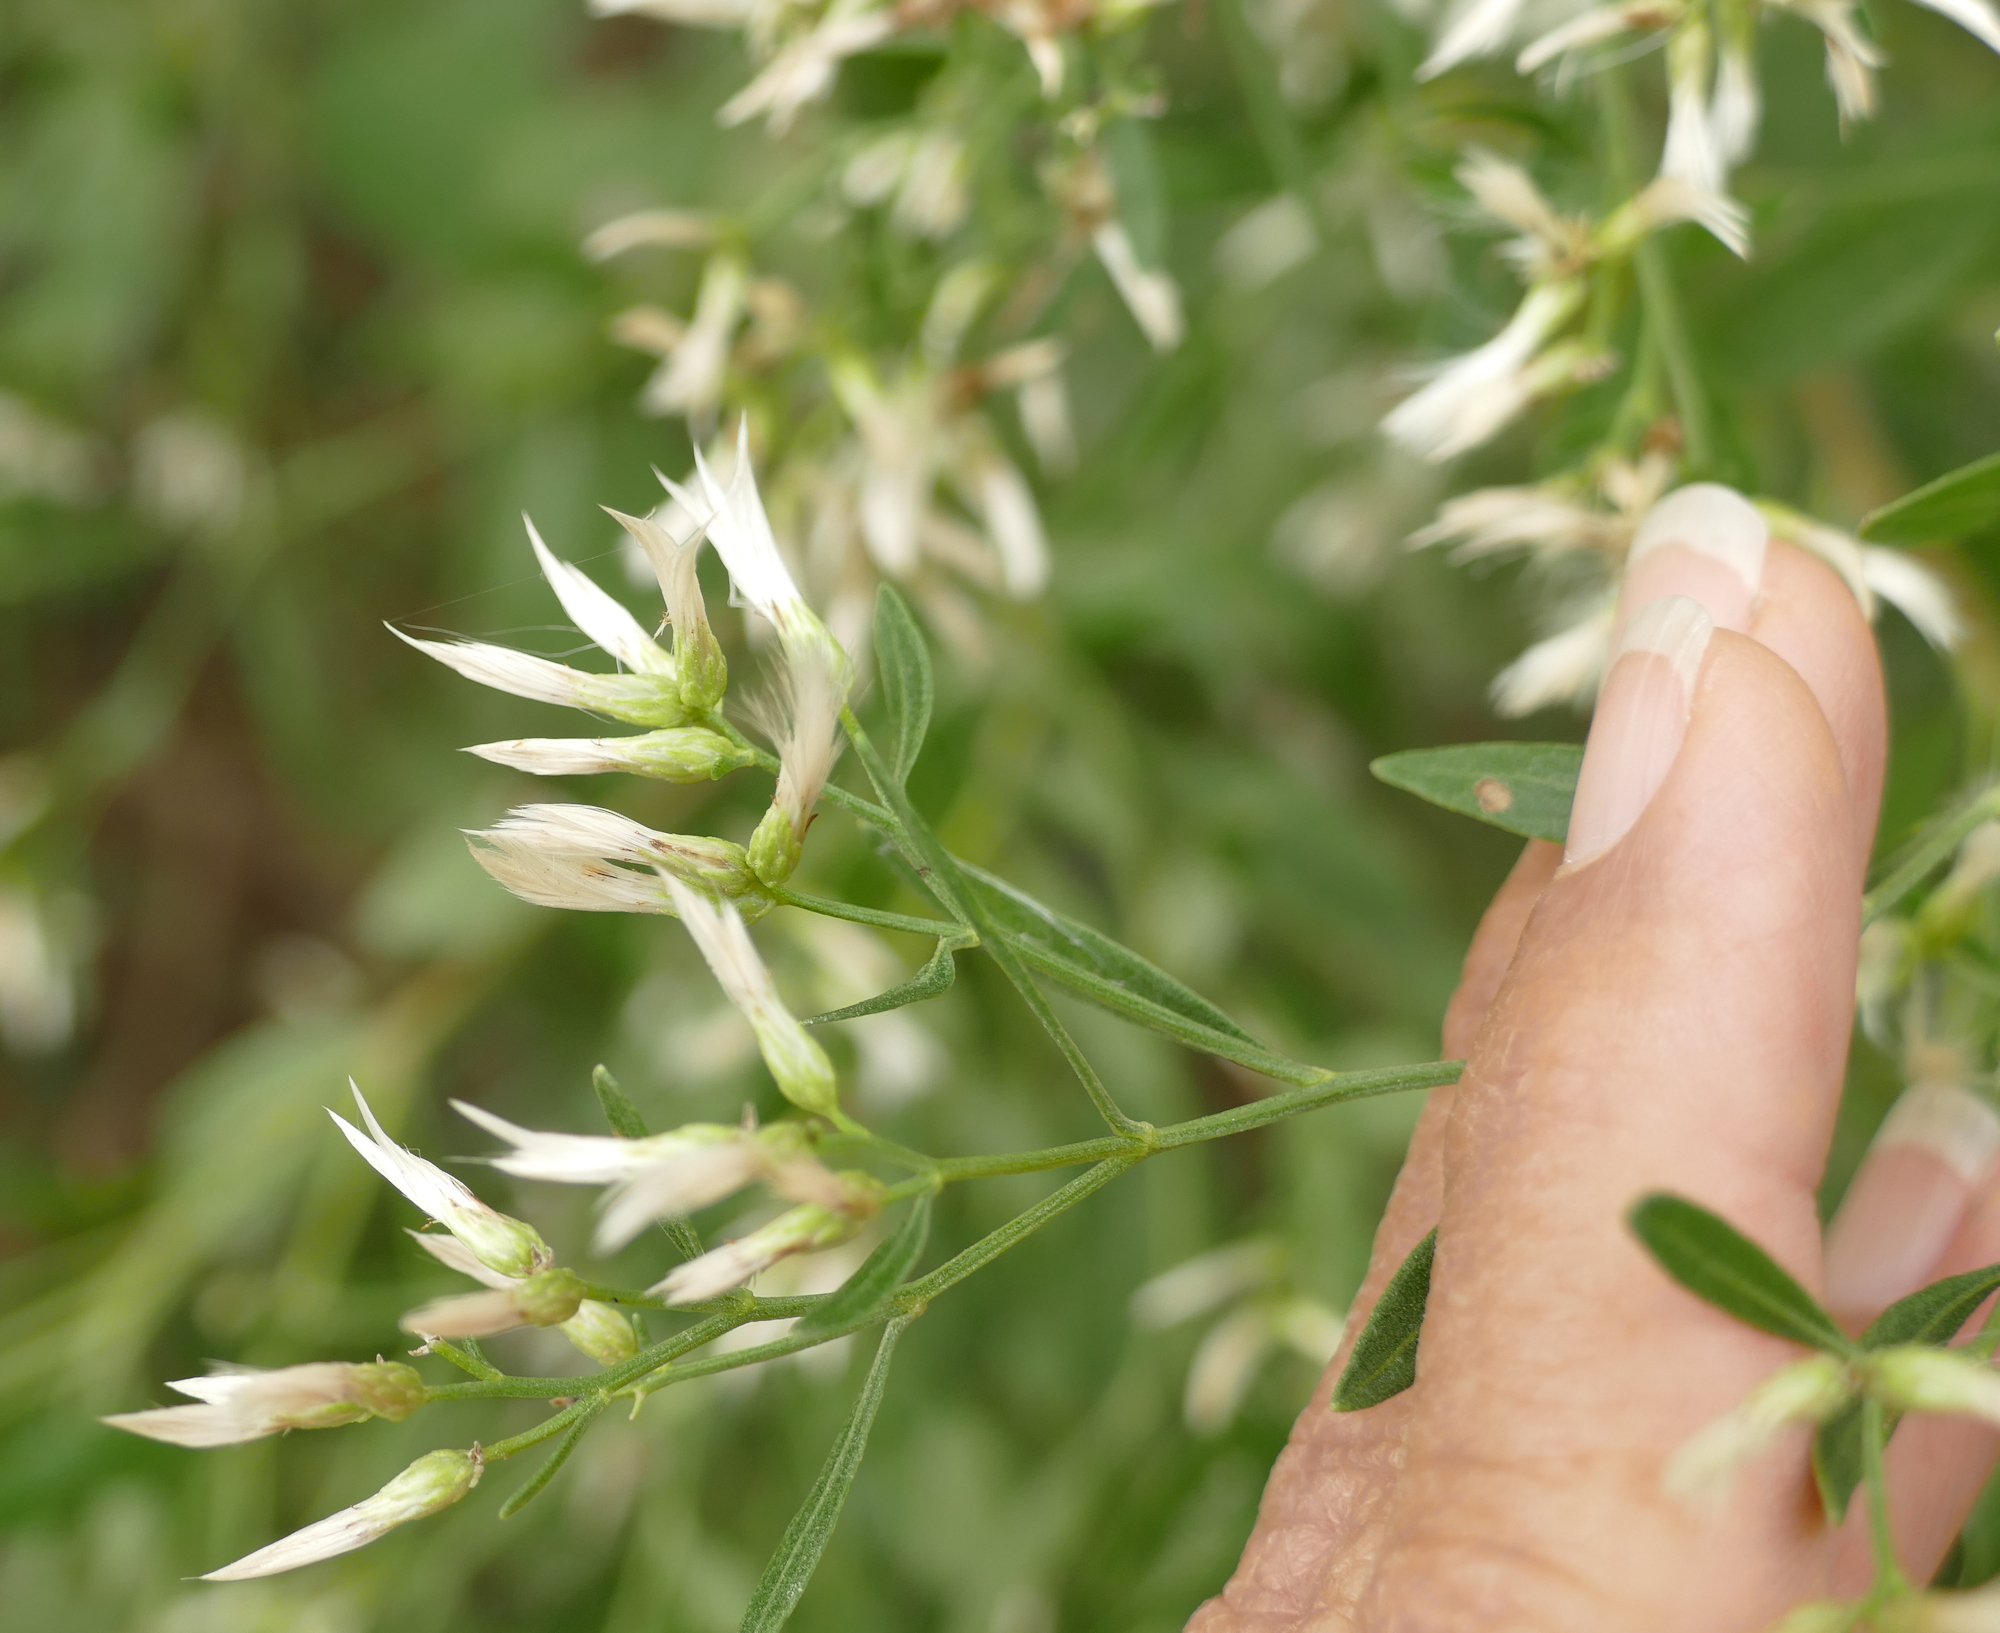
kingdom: Plantae
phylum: Tracheophyta
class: Magnoliopsida
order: Asterales
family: Asteraceae
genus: Baccharis
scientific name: Baccharis halimifolia
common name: Eastern baccharis
